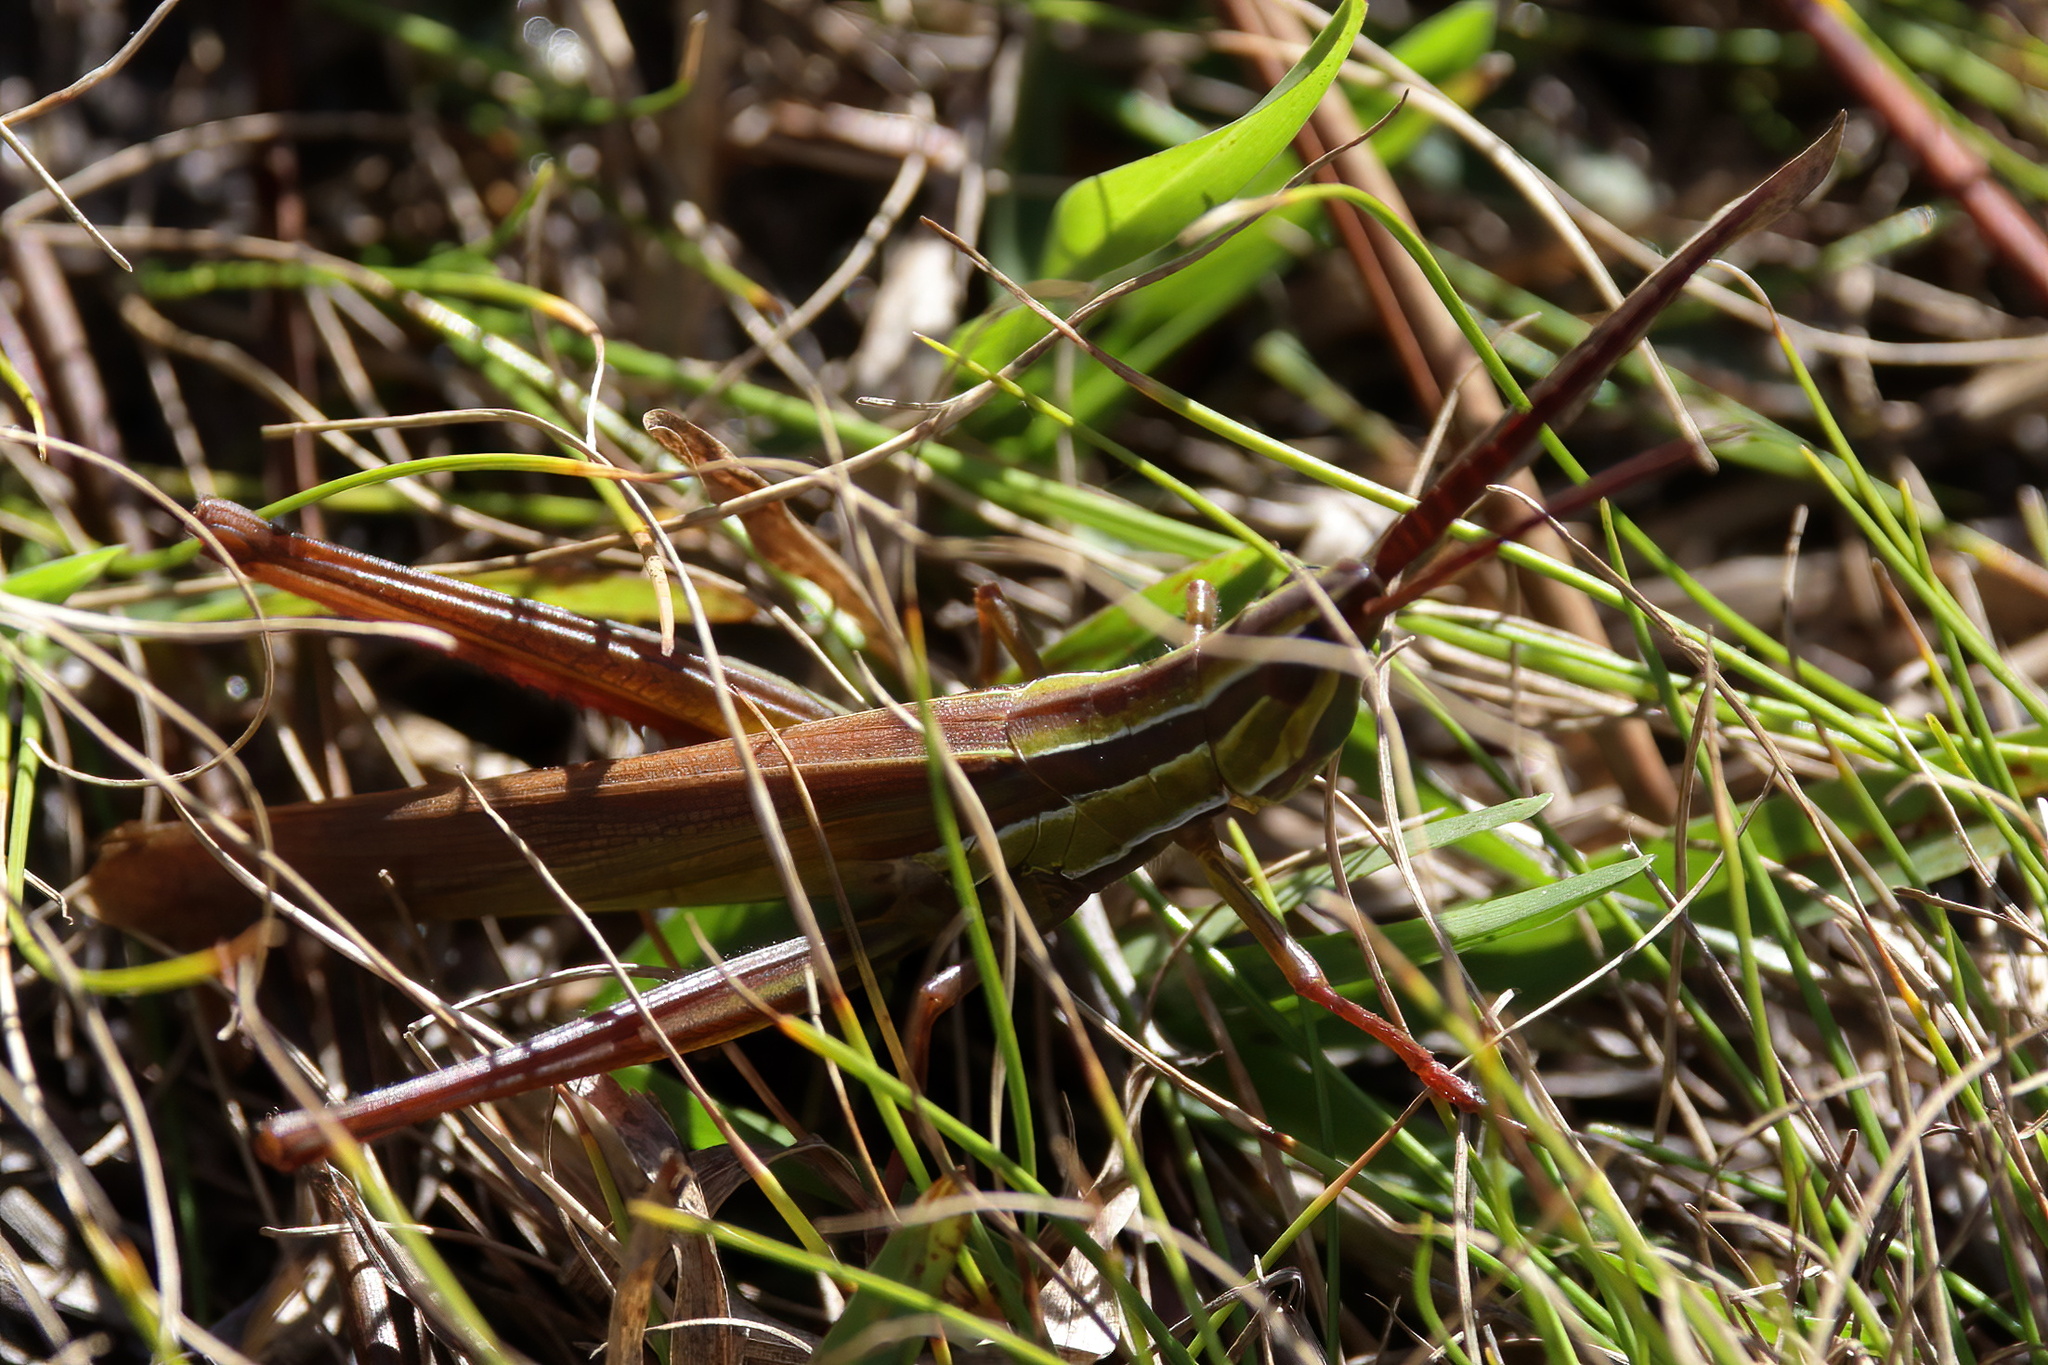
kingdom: Animalia
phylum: Arthropoda
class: Insecta
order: Orthoptera
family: Acrididae
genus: Mermiria
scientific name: Mermiria picta
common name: Lively mermiria grasshopper
